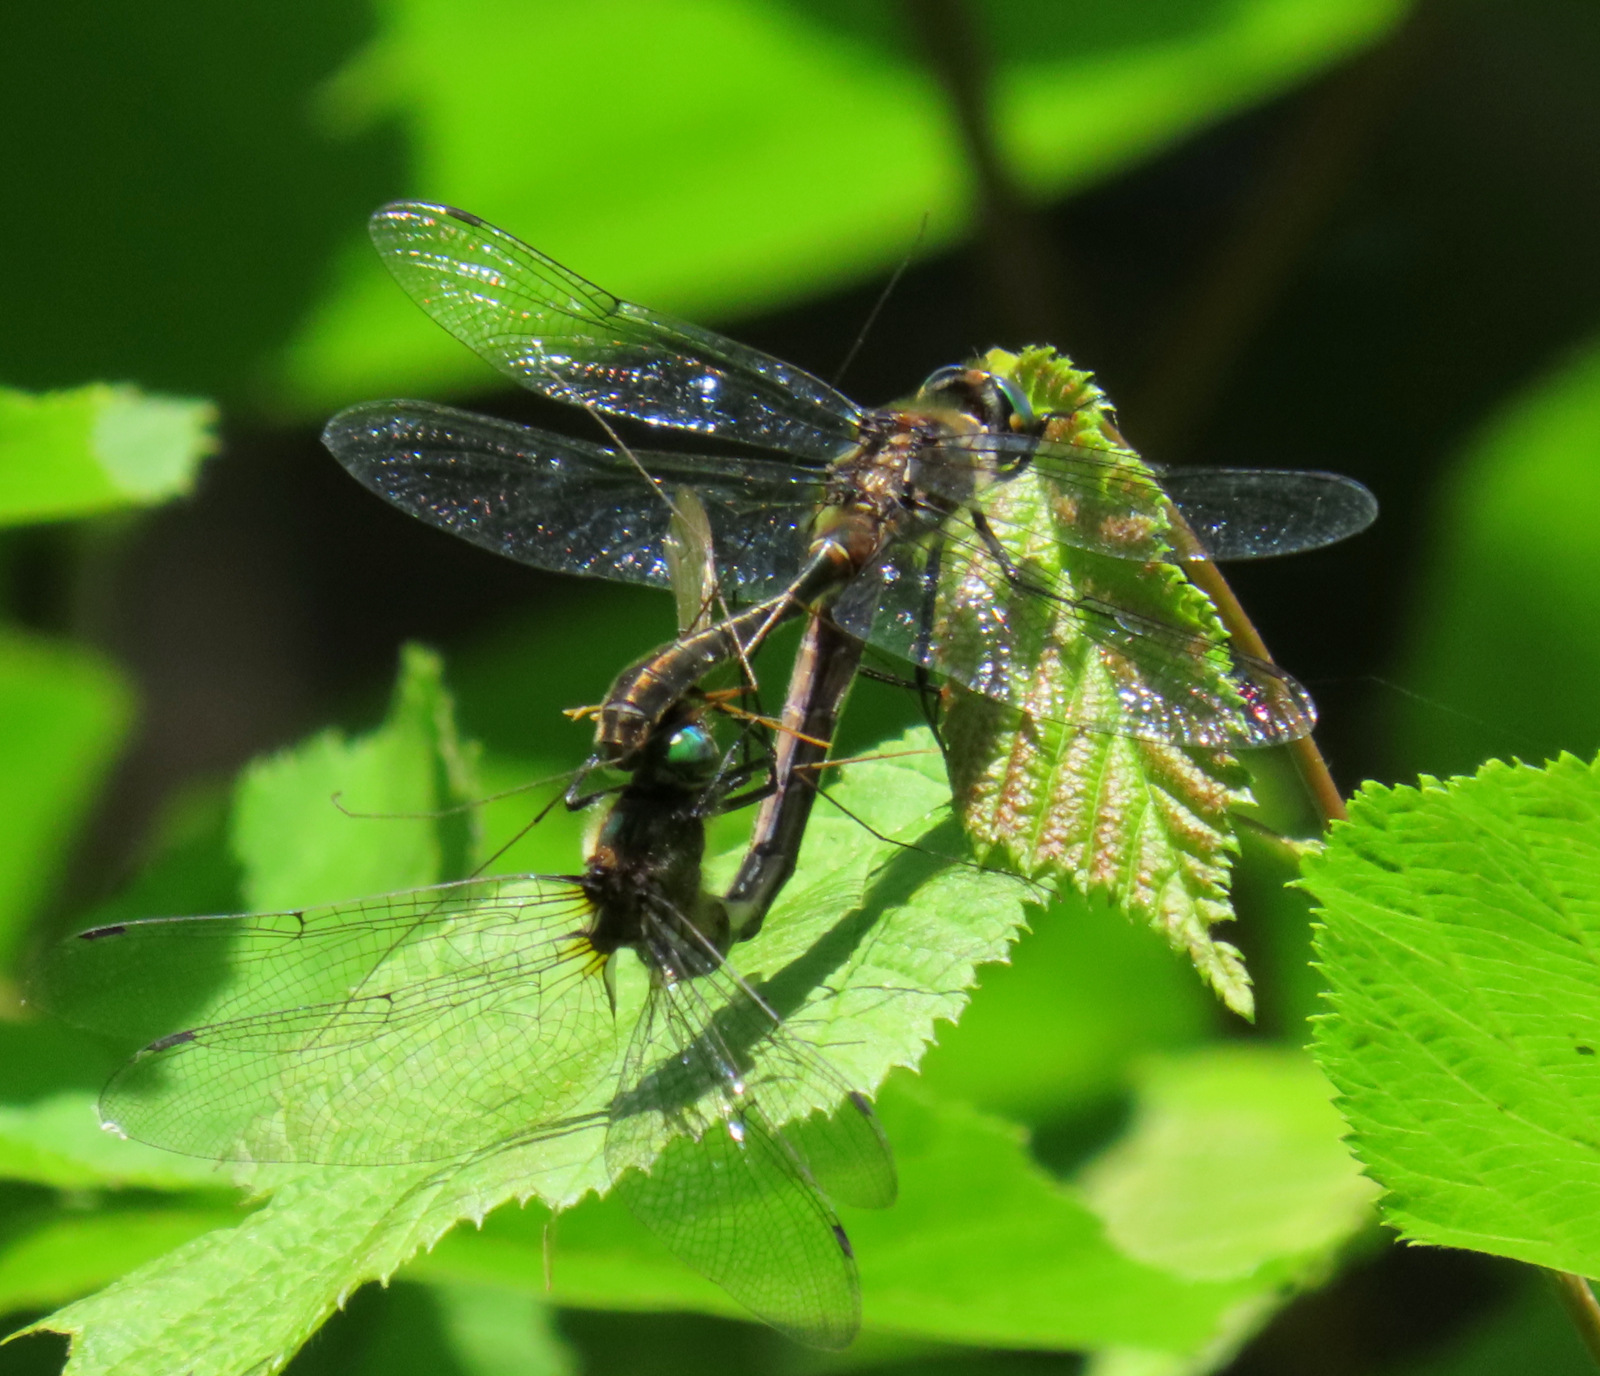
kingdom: Animalia
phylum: Arthropoda
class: Insecta
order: Odonata
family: Corduliidae
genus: Cordulia
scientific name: Cordulia shurtleffii
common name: American emerald
